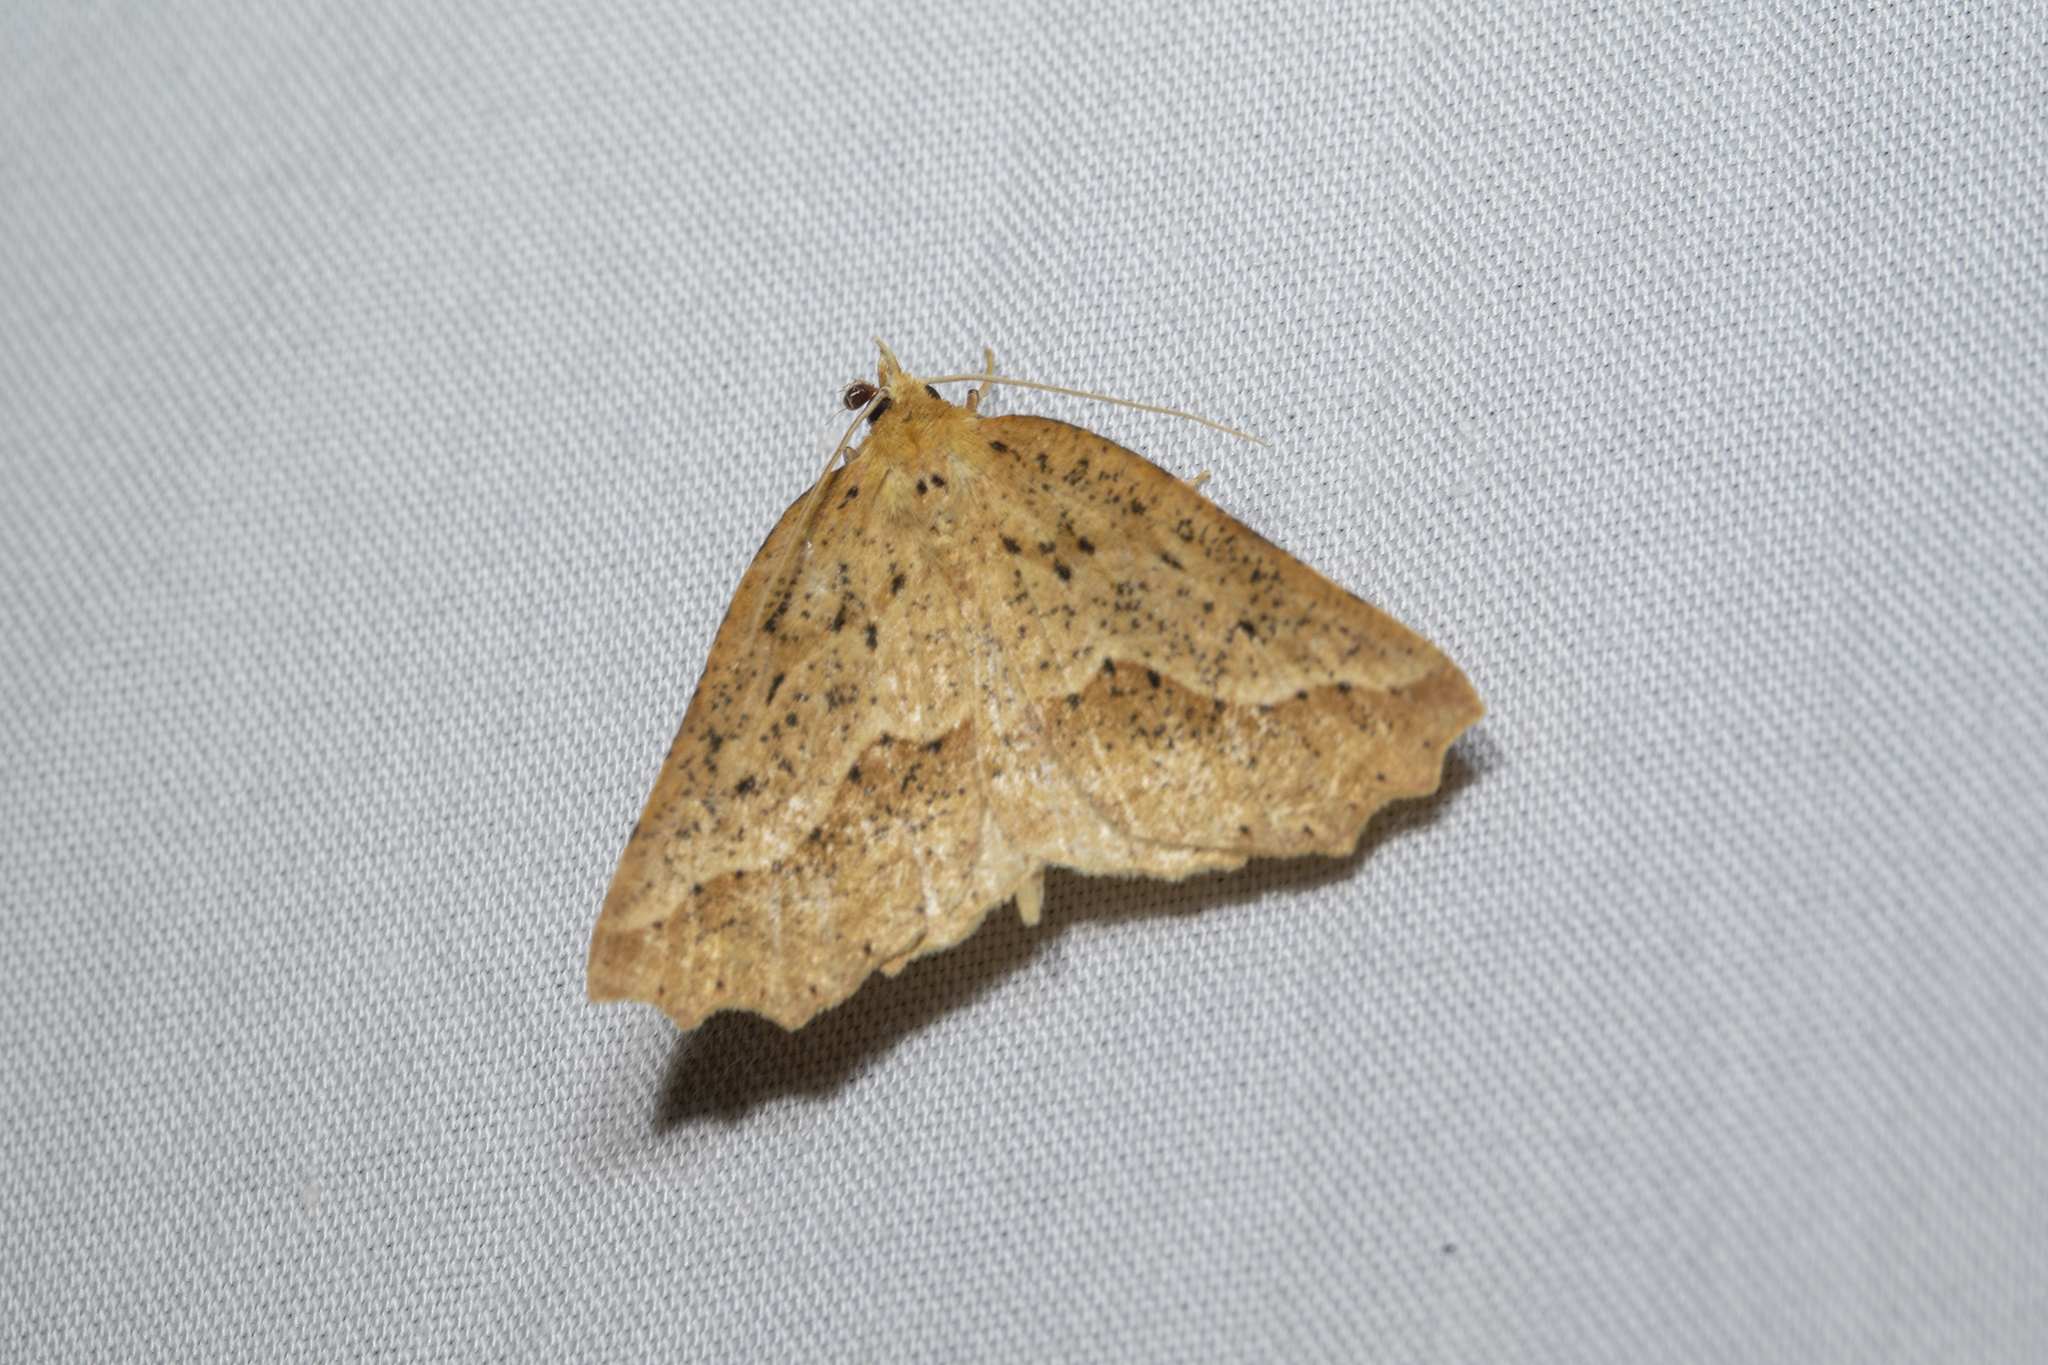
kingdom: Animalia
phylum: Arthropoda
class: Insecta
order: Lepidoptera
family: Geometridae
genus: Ischalis
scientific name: Ischalis variabilis
